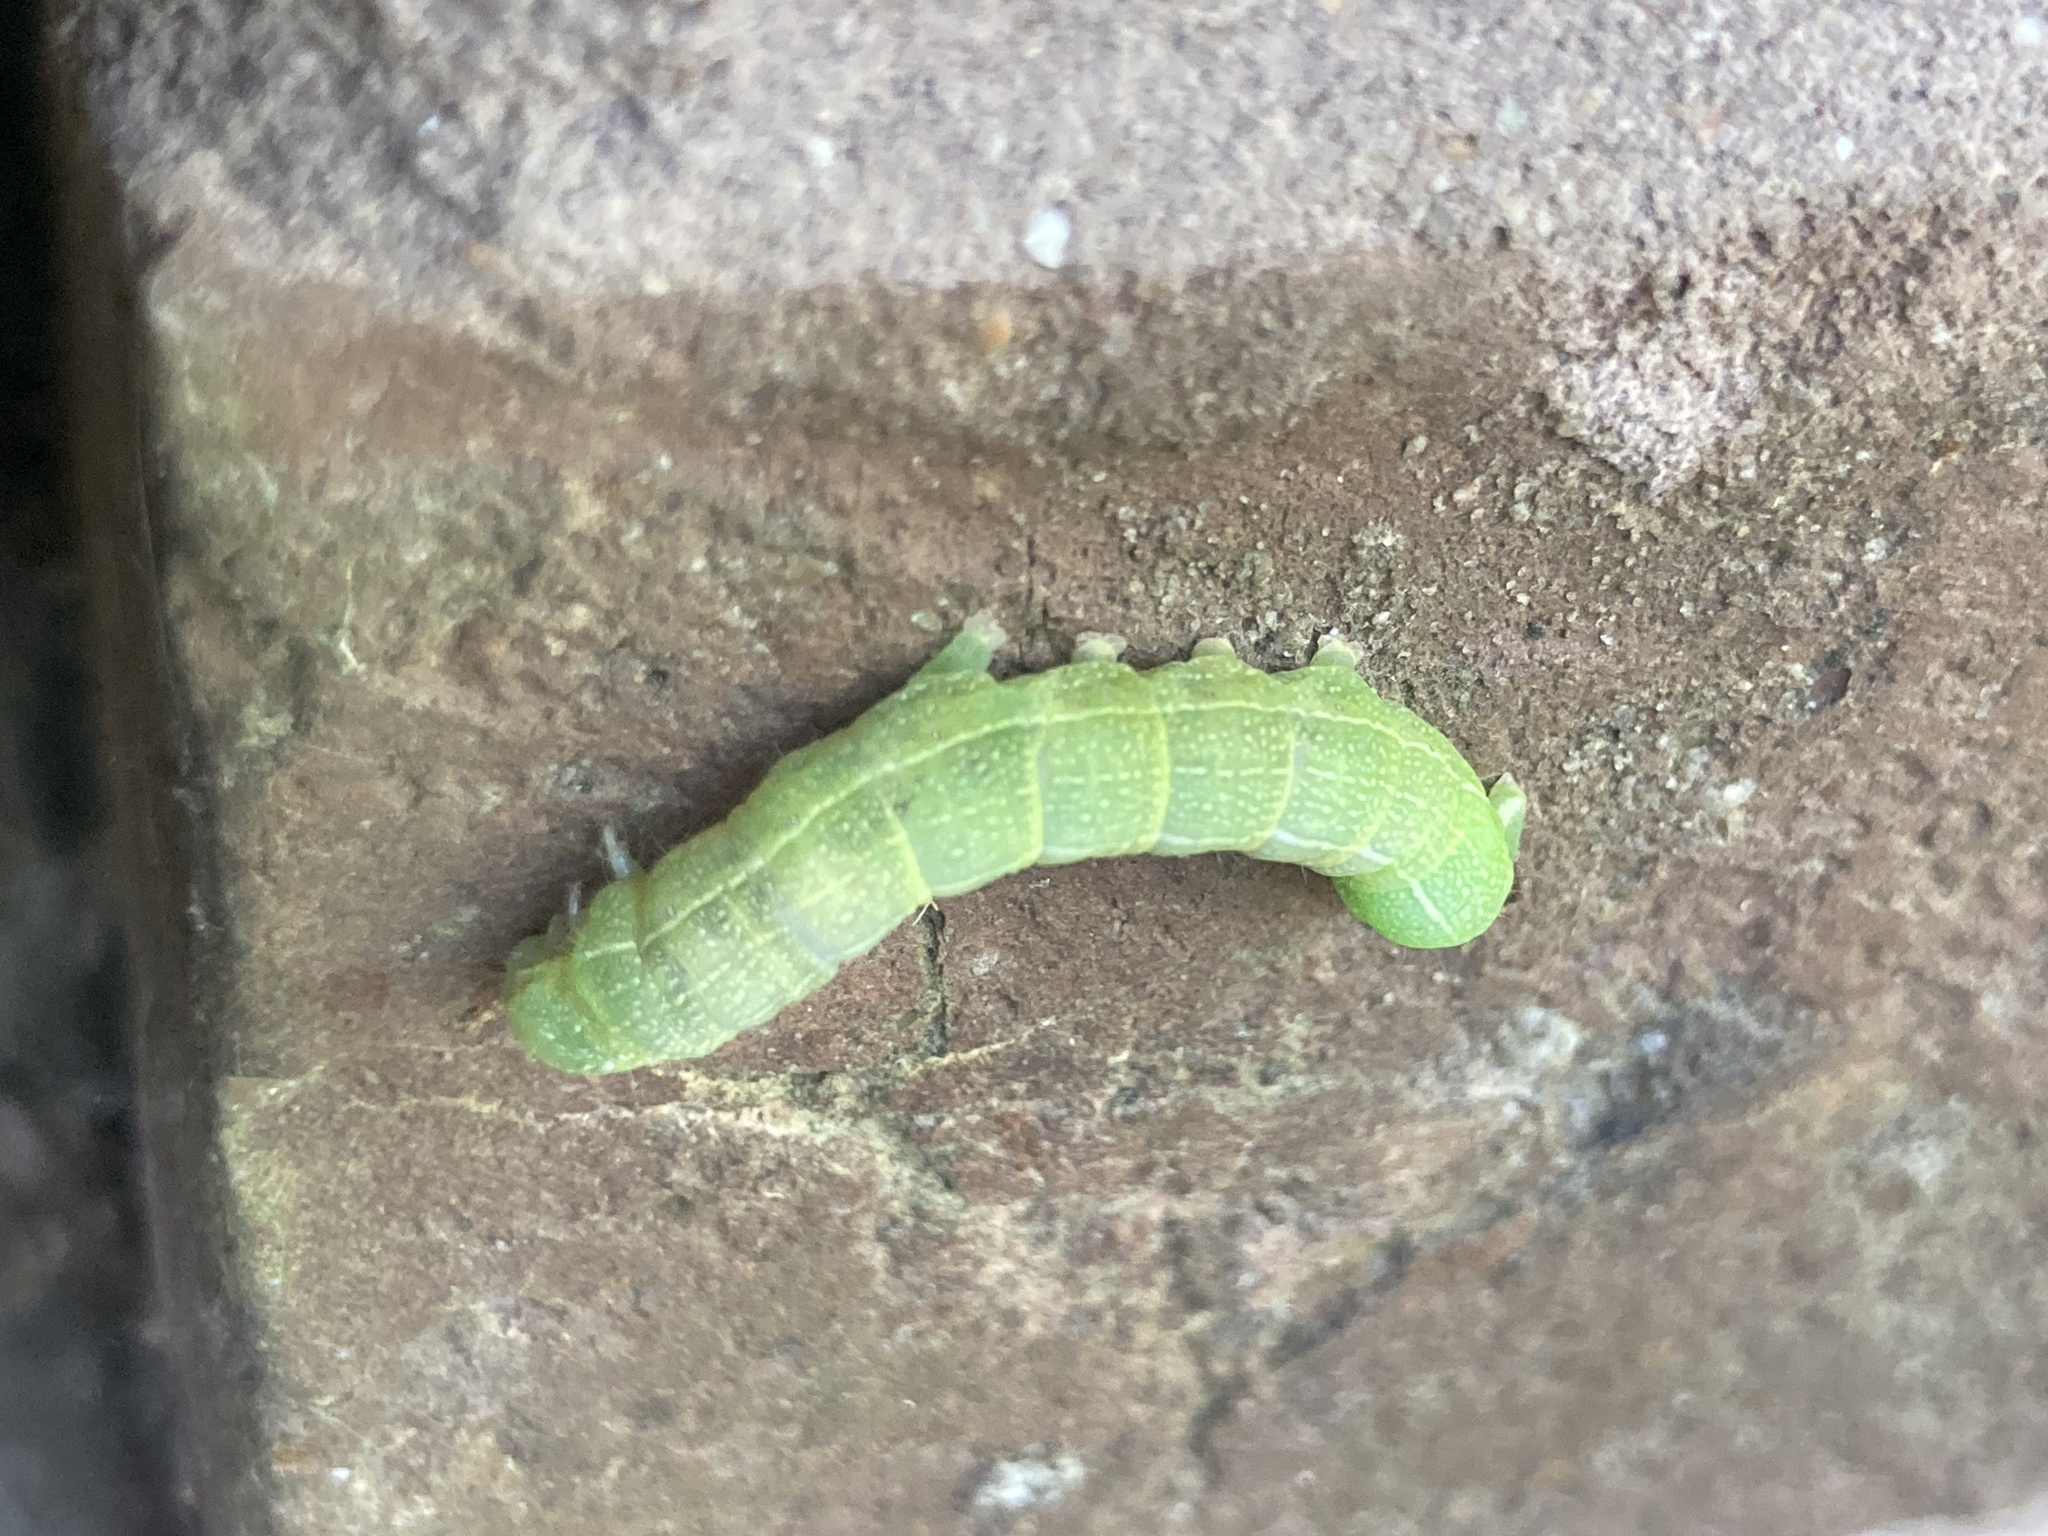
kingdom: Animalia
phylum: Arthropoda
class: Insecta
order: Lepidoptera
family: Noctuidae
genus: Orthosia
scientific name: Orthosia hibisci
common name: Green fruitworm
